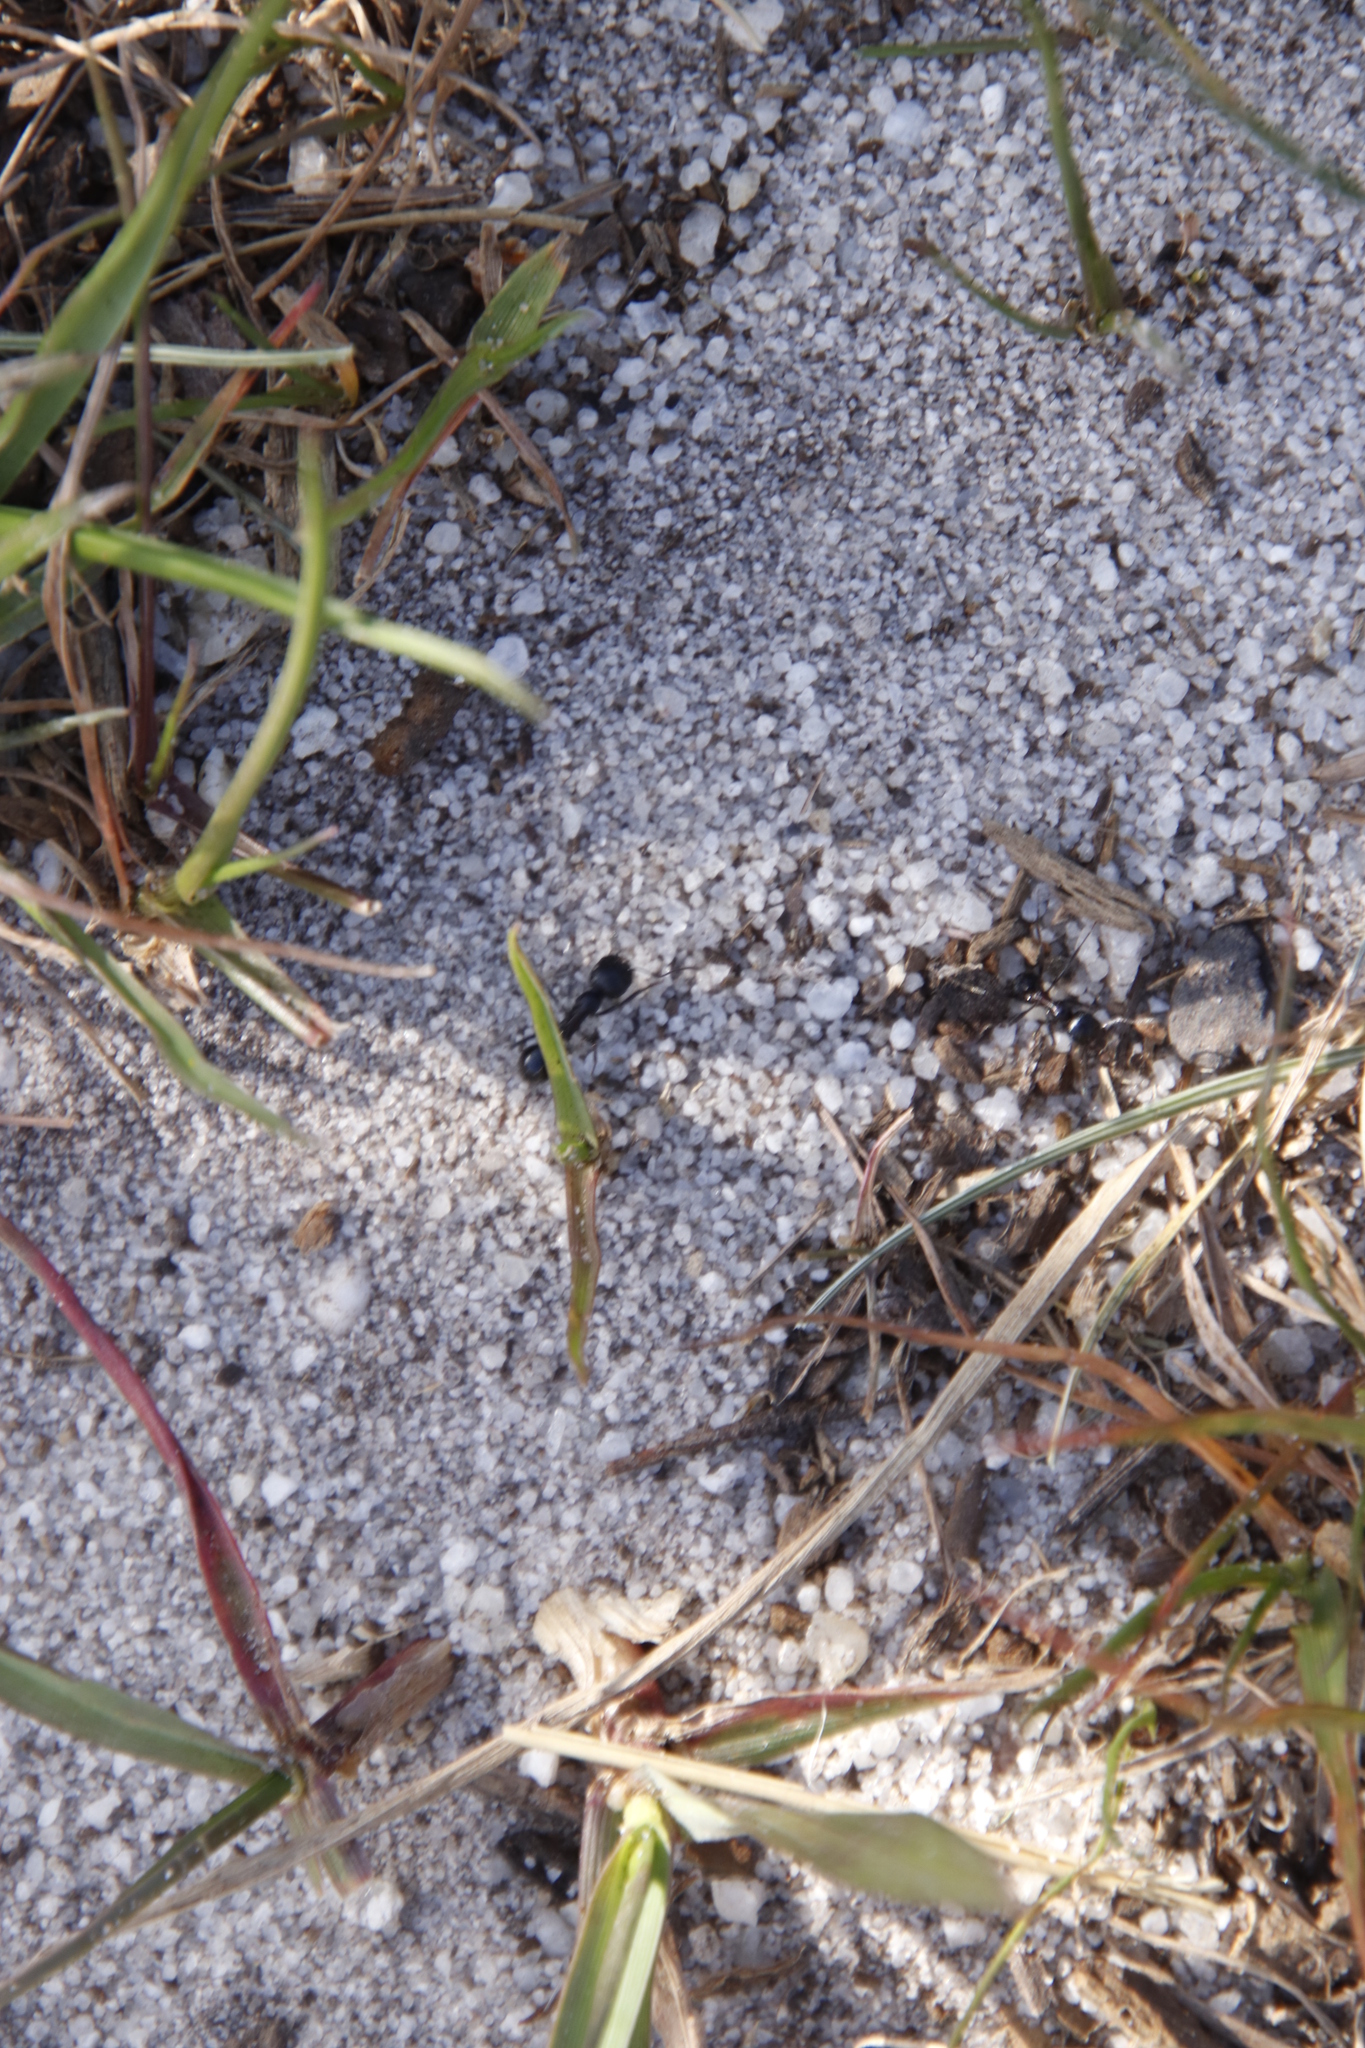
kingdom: Animalia
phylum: Arthropoda
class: Insecta
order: Hymenoptera
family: Formicidae
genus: Messor
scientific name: Messor capensis
